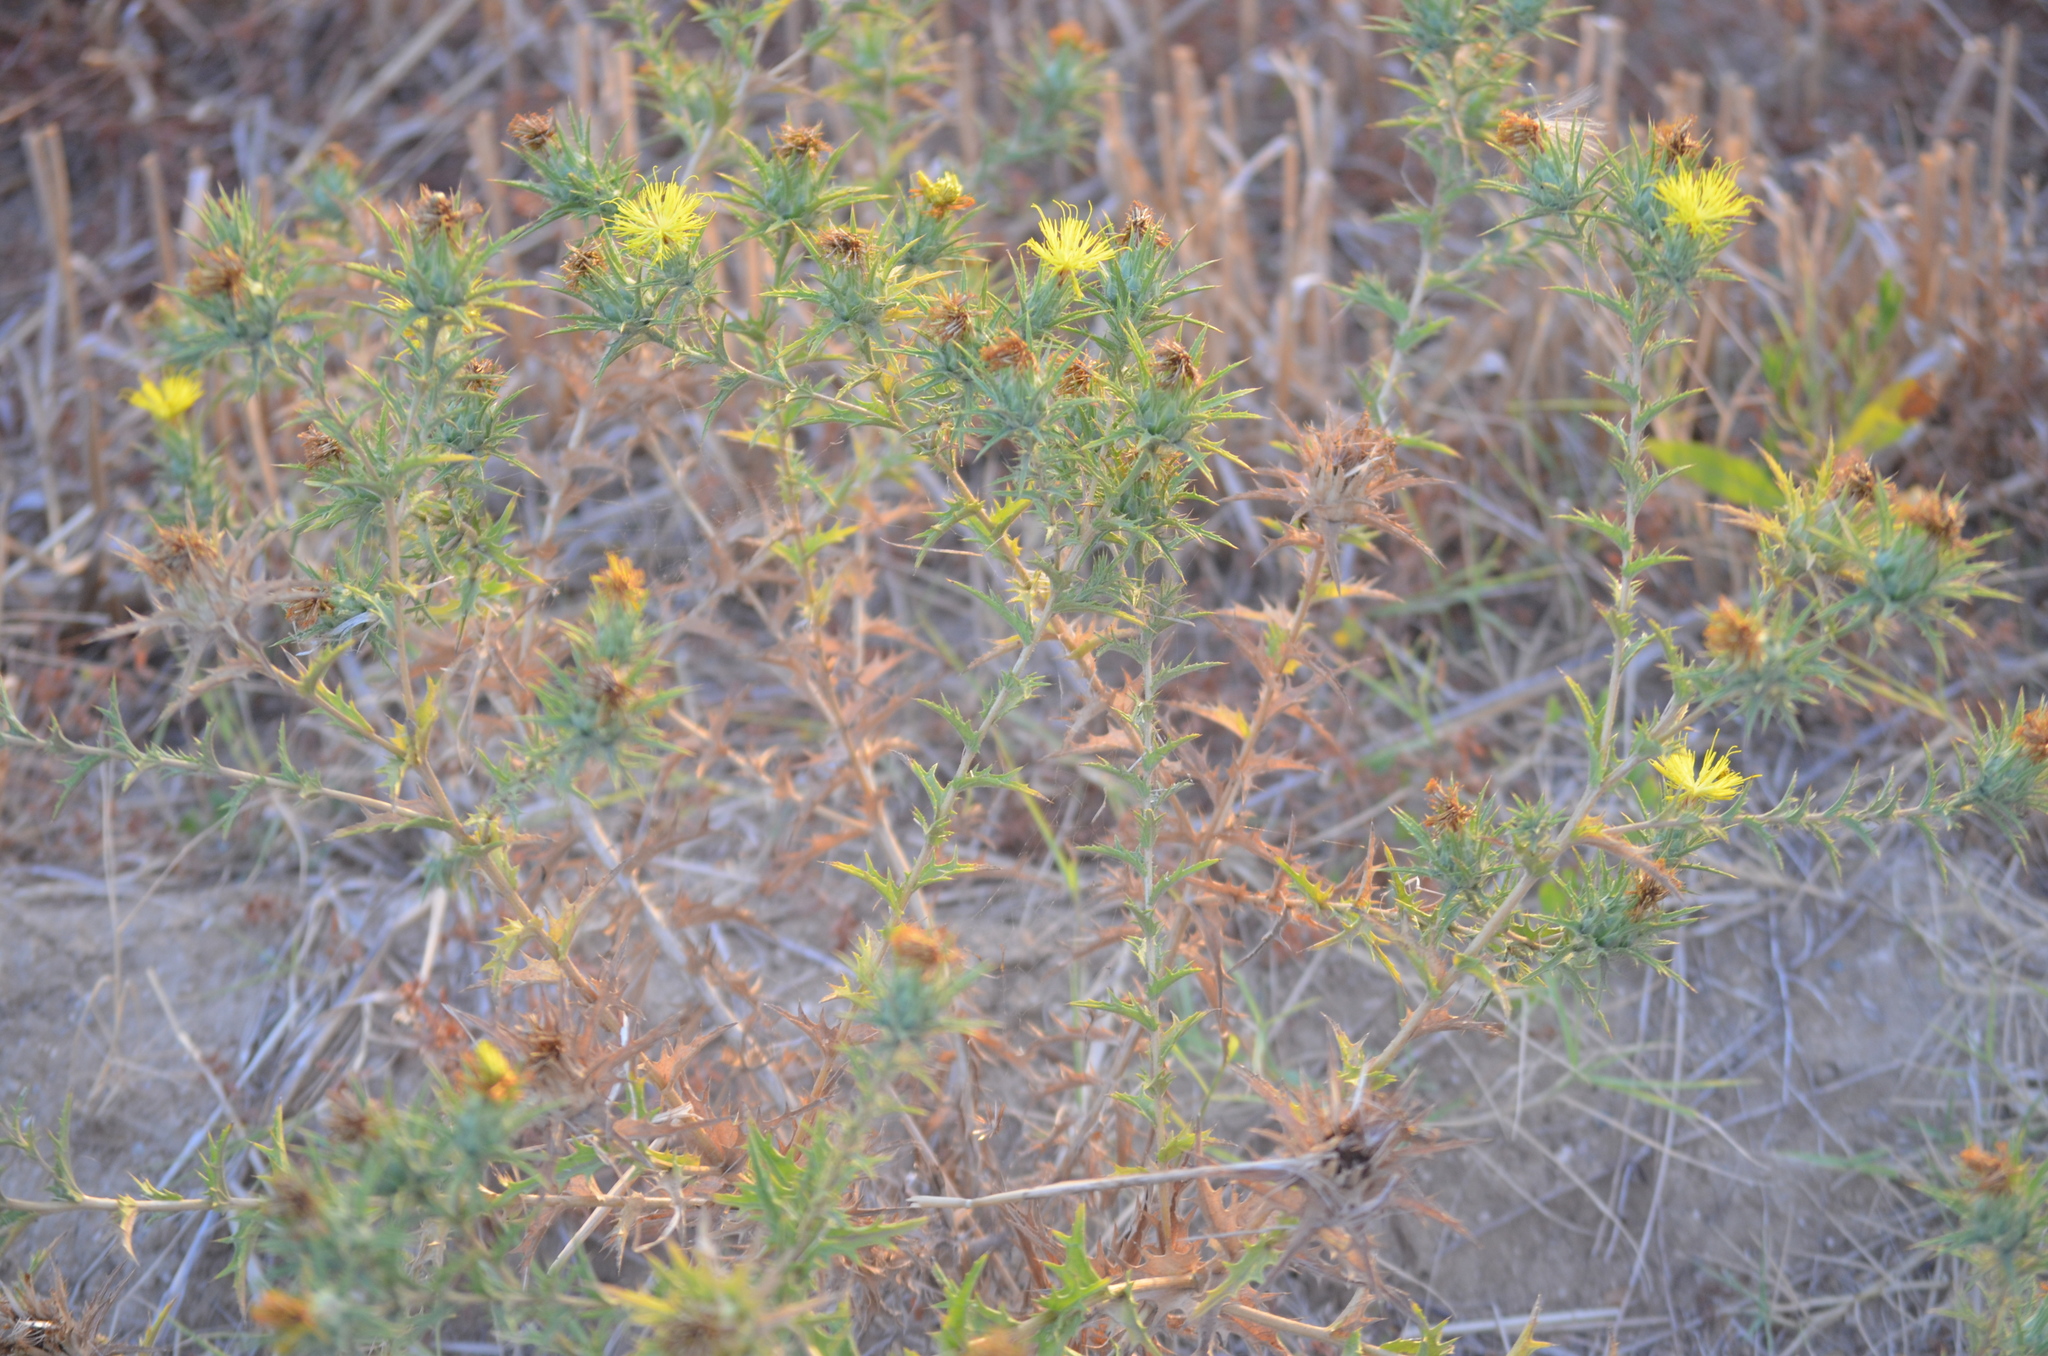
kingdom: Plantae
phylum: Tracheophyta
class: Magnoliopsida
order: Asterales
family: Asteraceae
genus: Carthamus
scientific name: Carthamus lanatus
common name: Downy safflower
